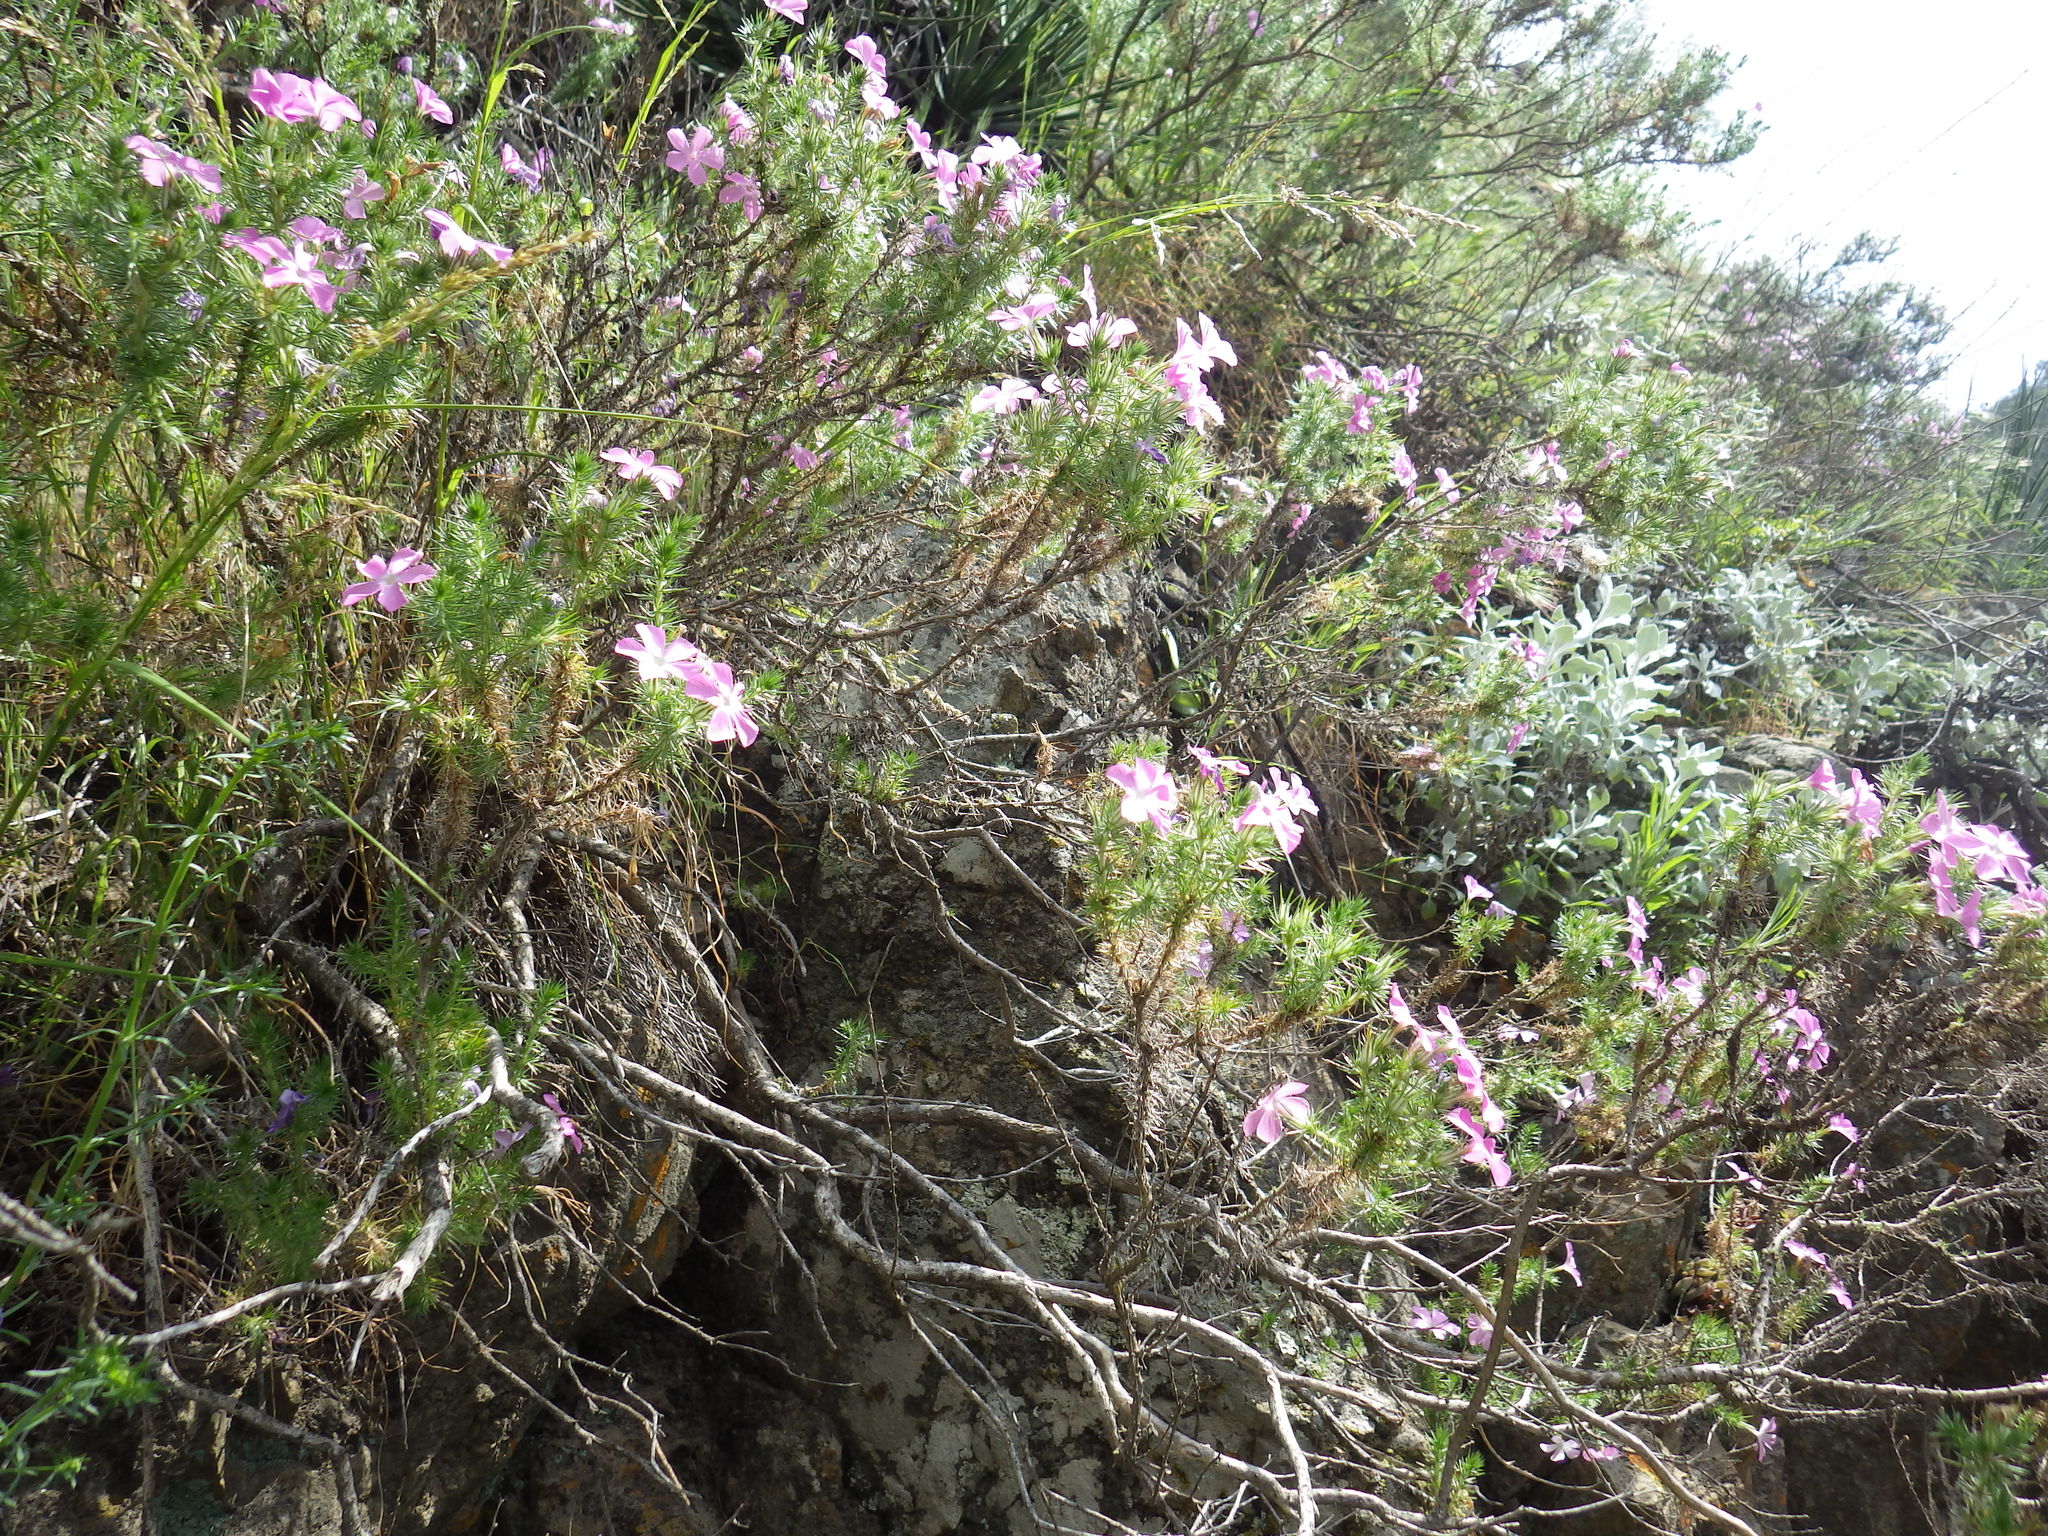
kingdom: Plantae
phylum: Tracheophyta
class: Magnoliopsida
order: Ericales
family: Polemoniaceae
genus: Linanthus
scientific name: Linanthus californicus
